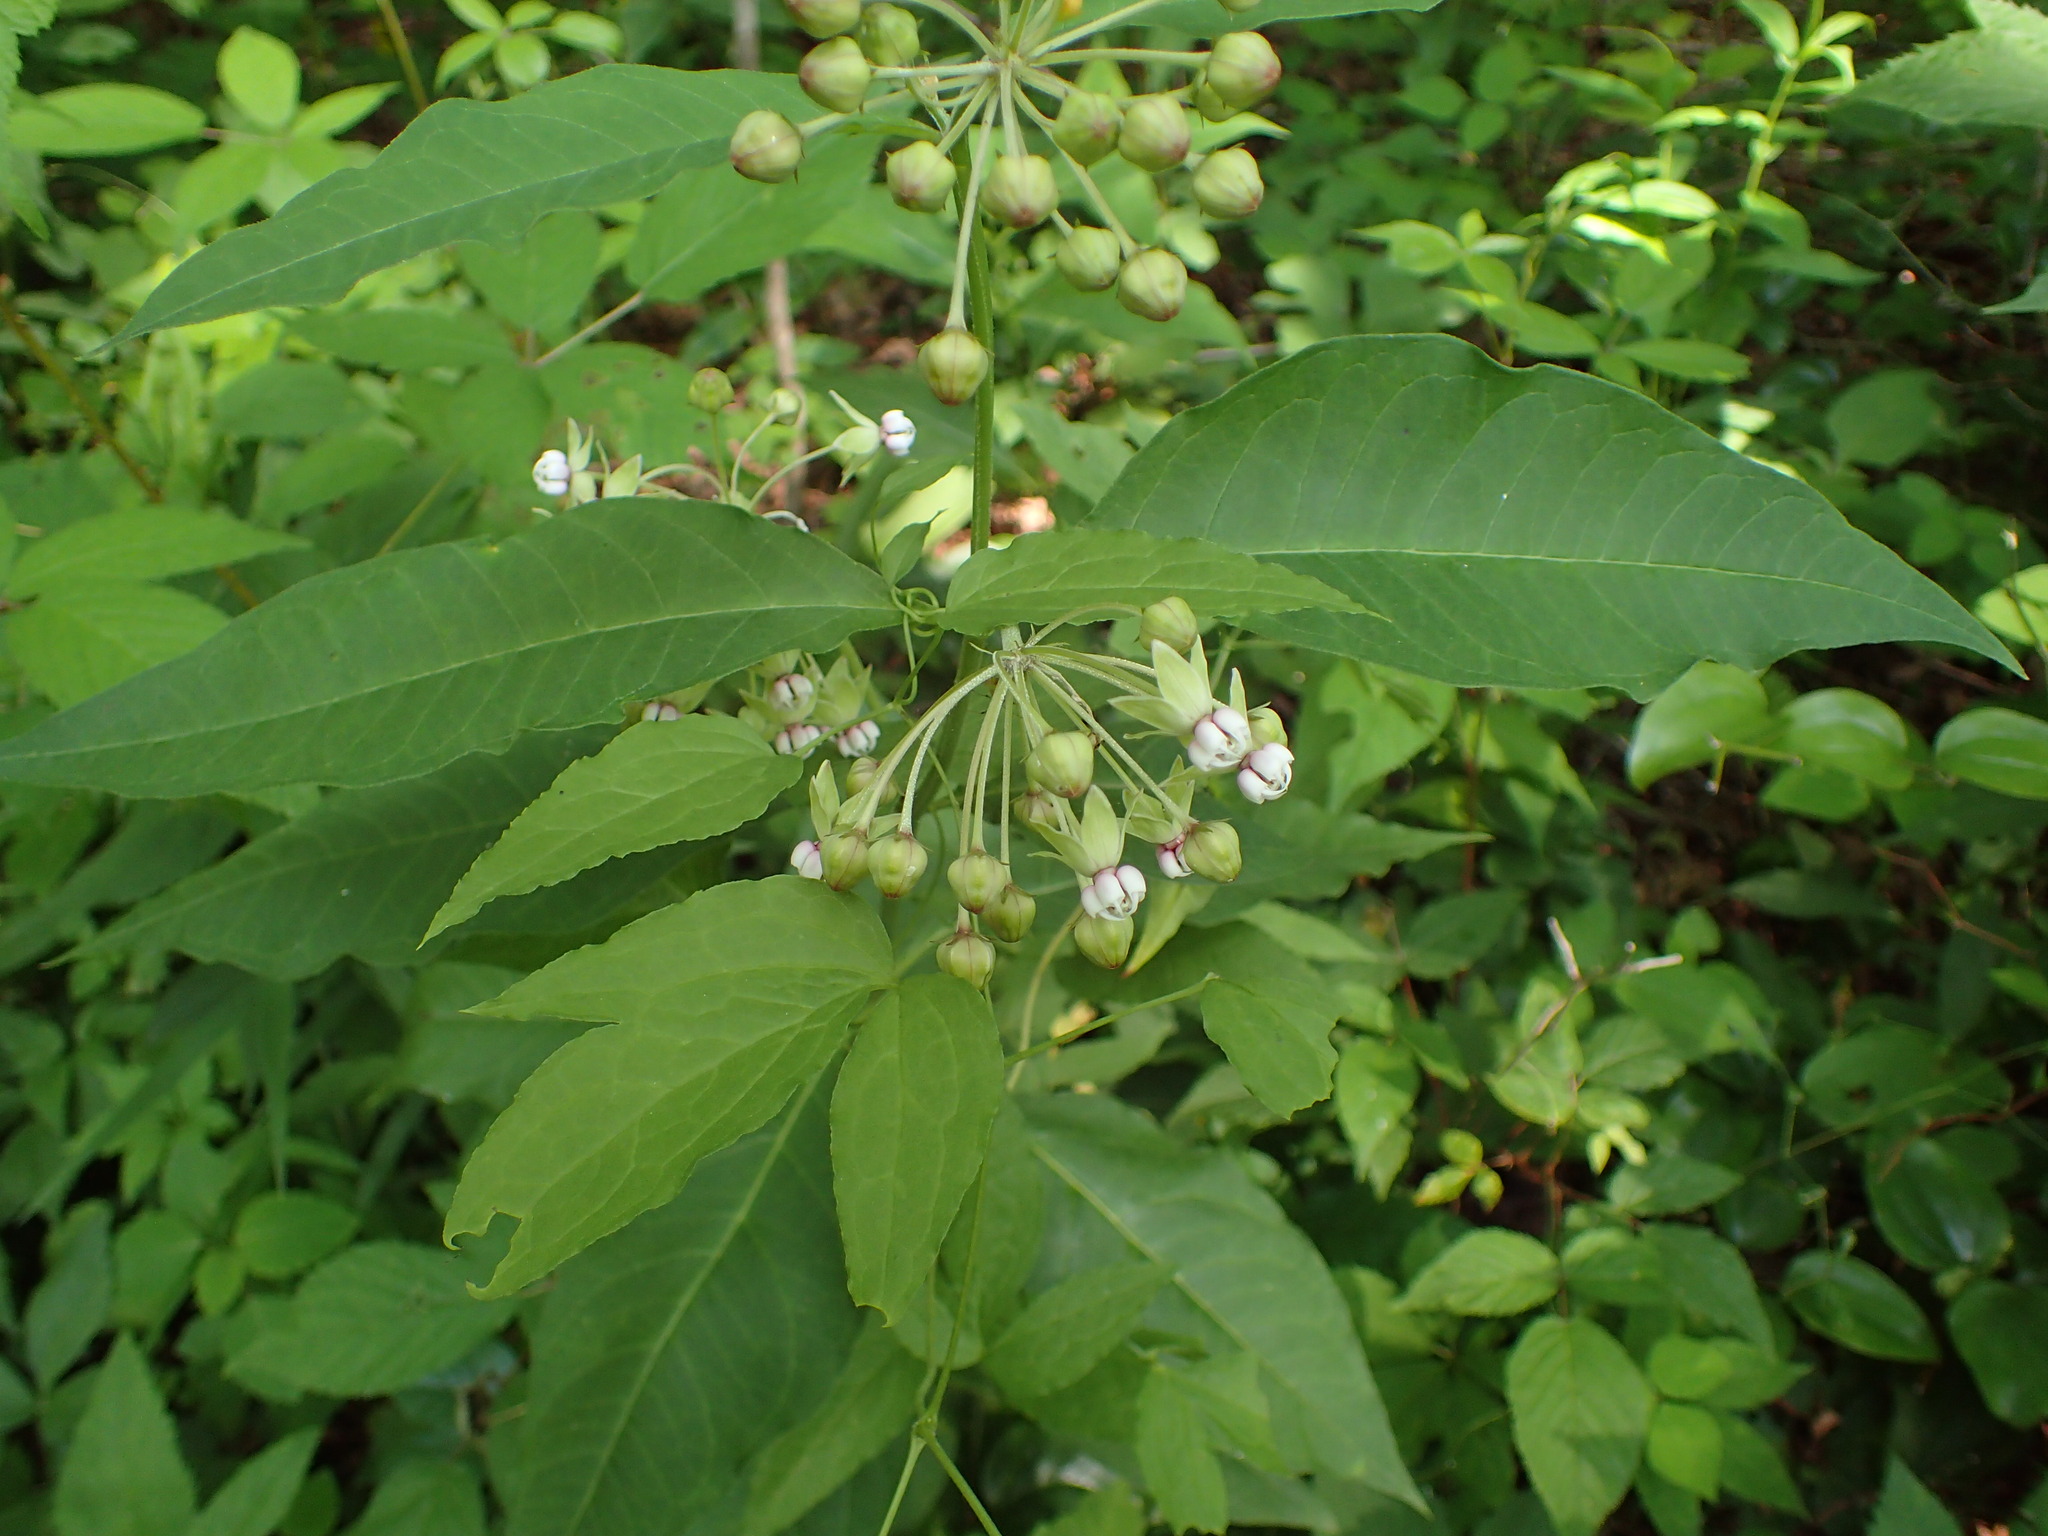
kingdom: Plantae
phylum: Tracheophyta
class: Magnoliopsida
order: Gentianales
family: Apocynaceae
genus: Asclepias
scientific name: Asclepias exaltata
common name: Poke milkweed
